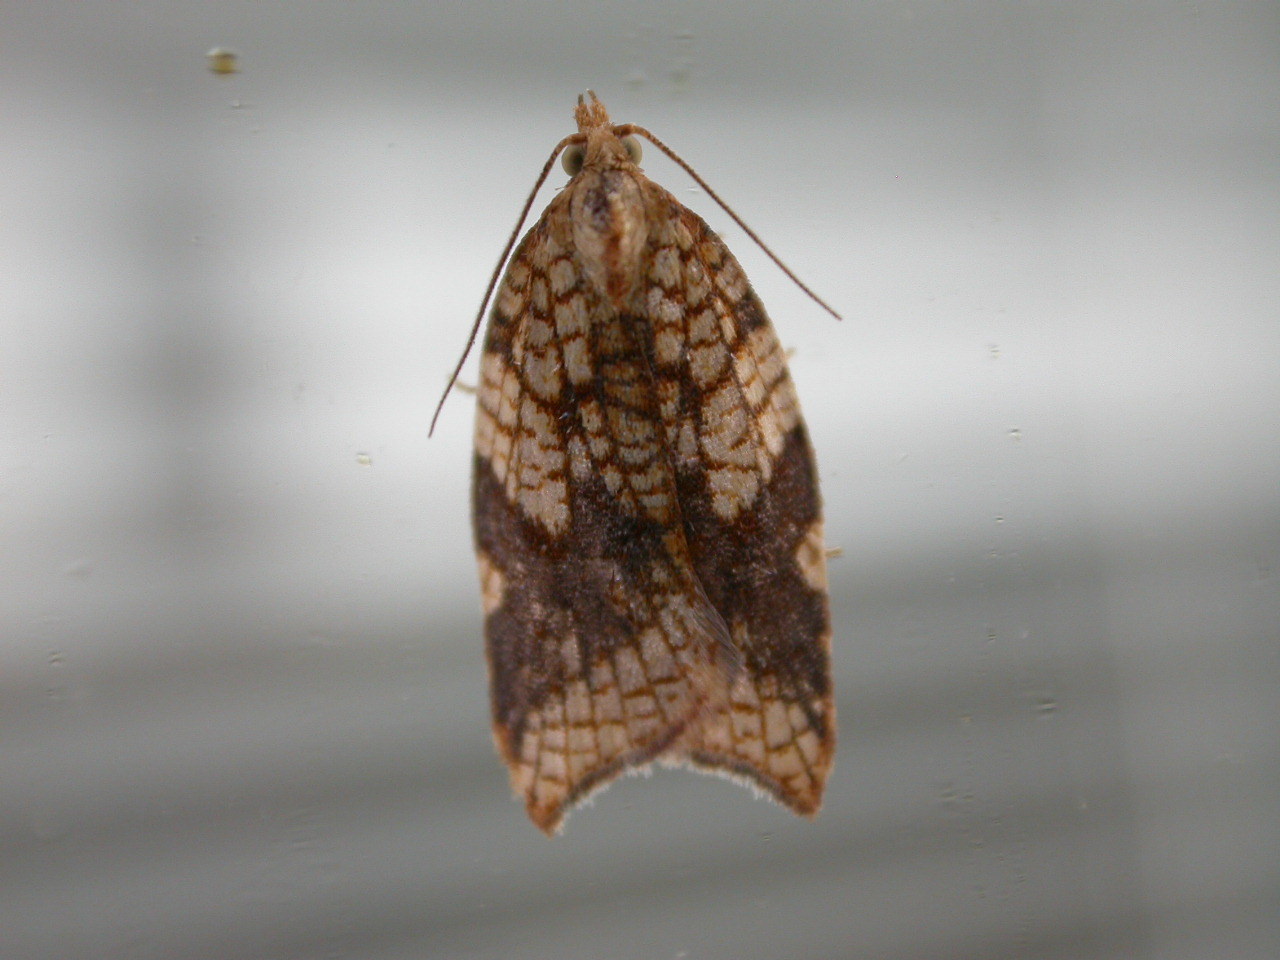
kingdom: Animalia
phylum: Arthropoda
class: Insecta
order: Lepidoptera
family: Tortricidae
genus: Acleris
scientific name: Acleris rhombana
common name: Tortricid moth
